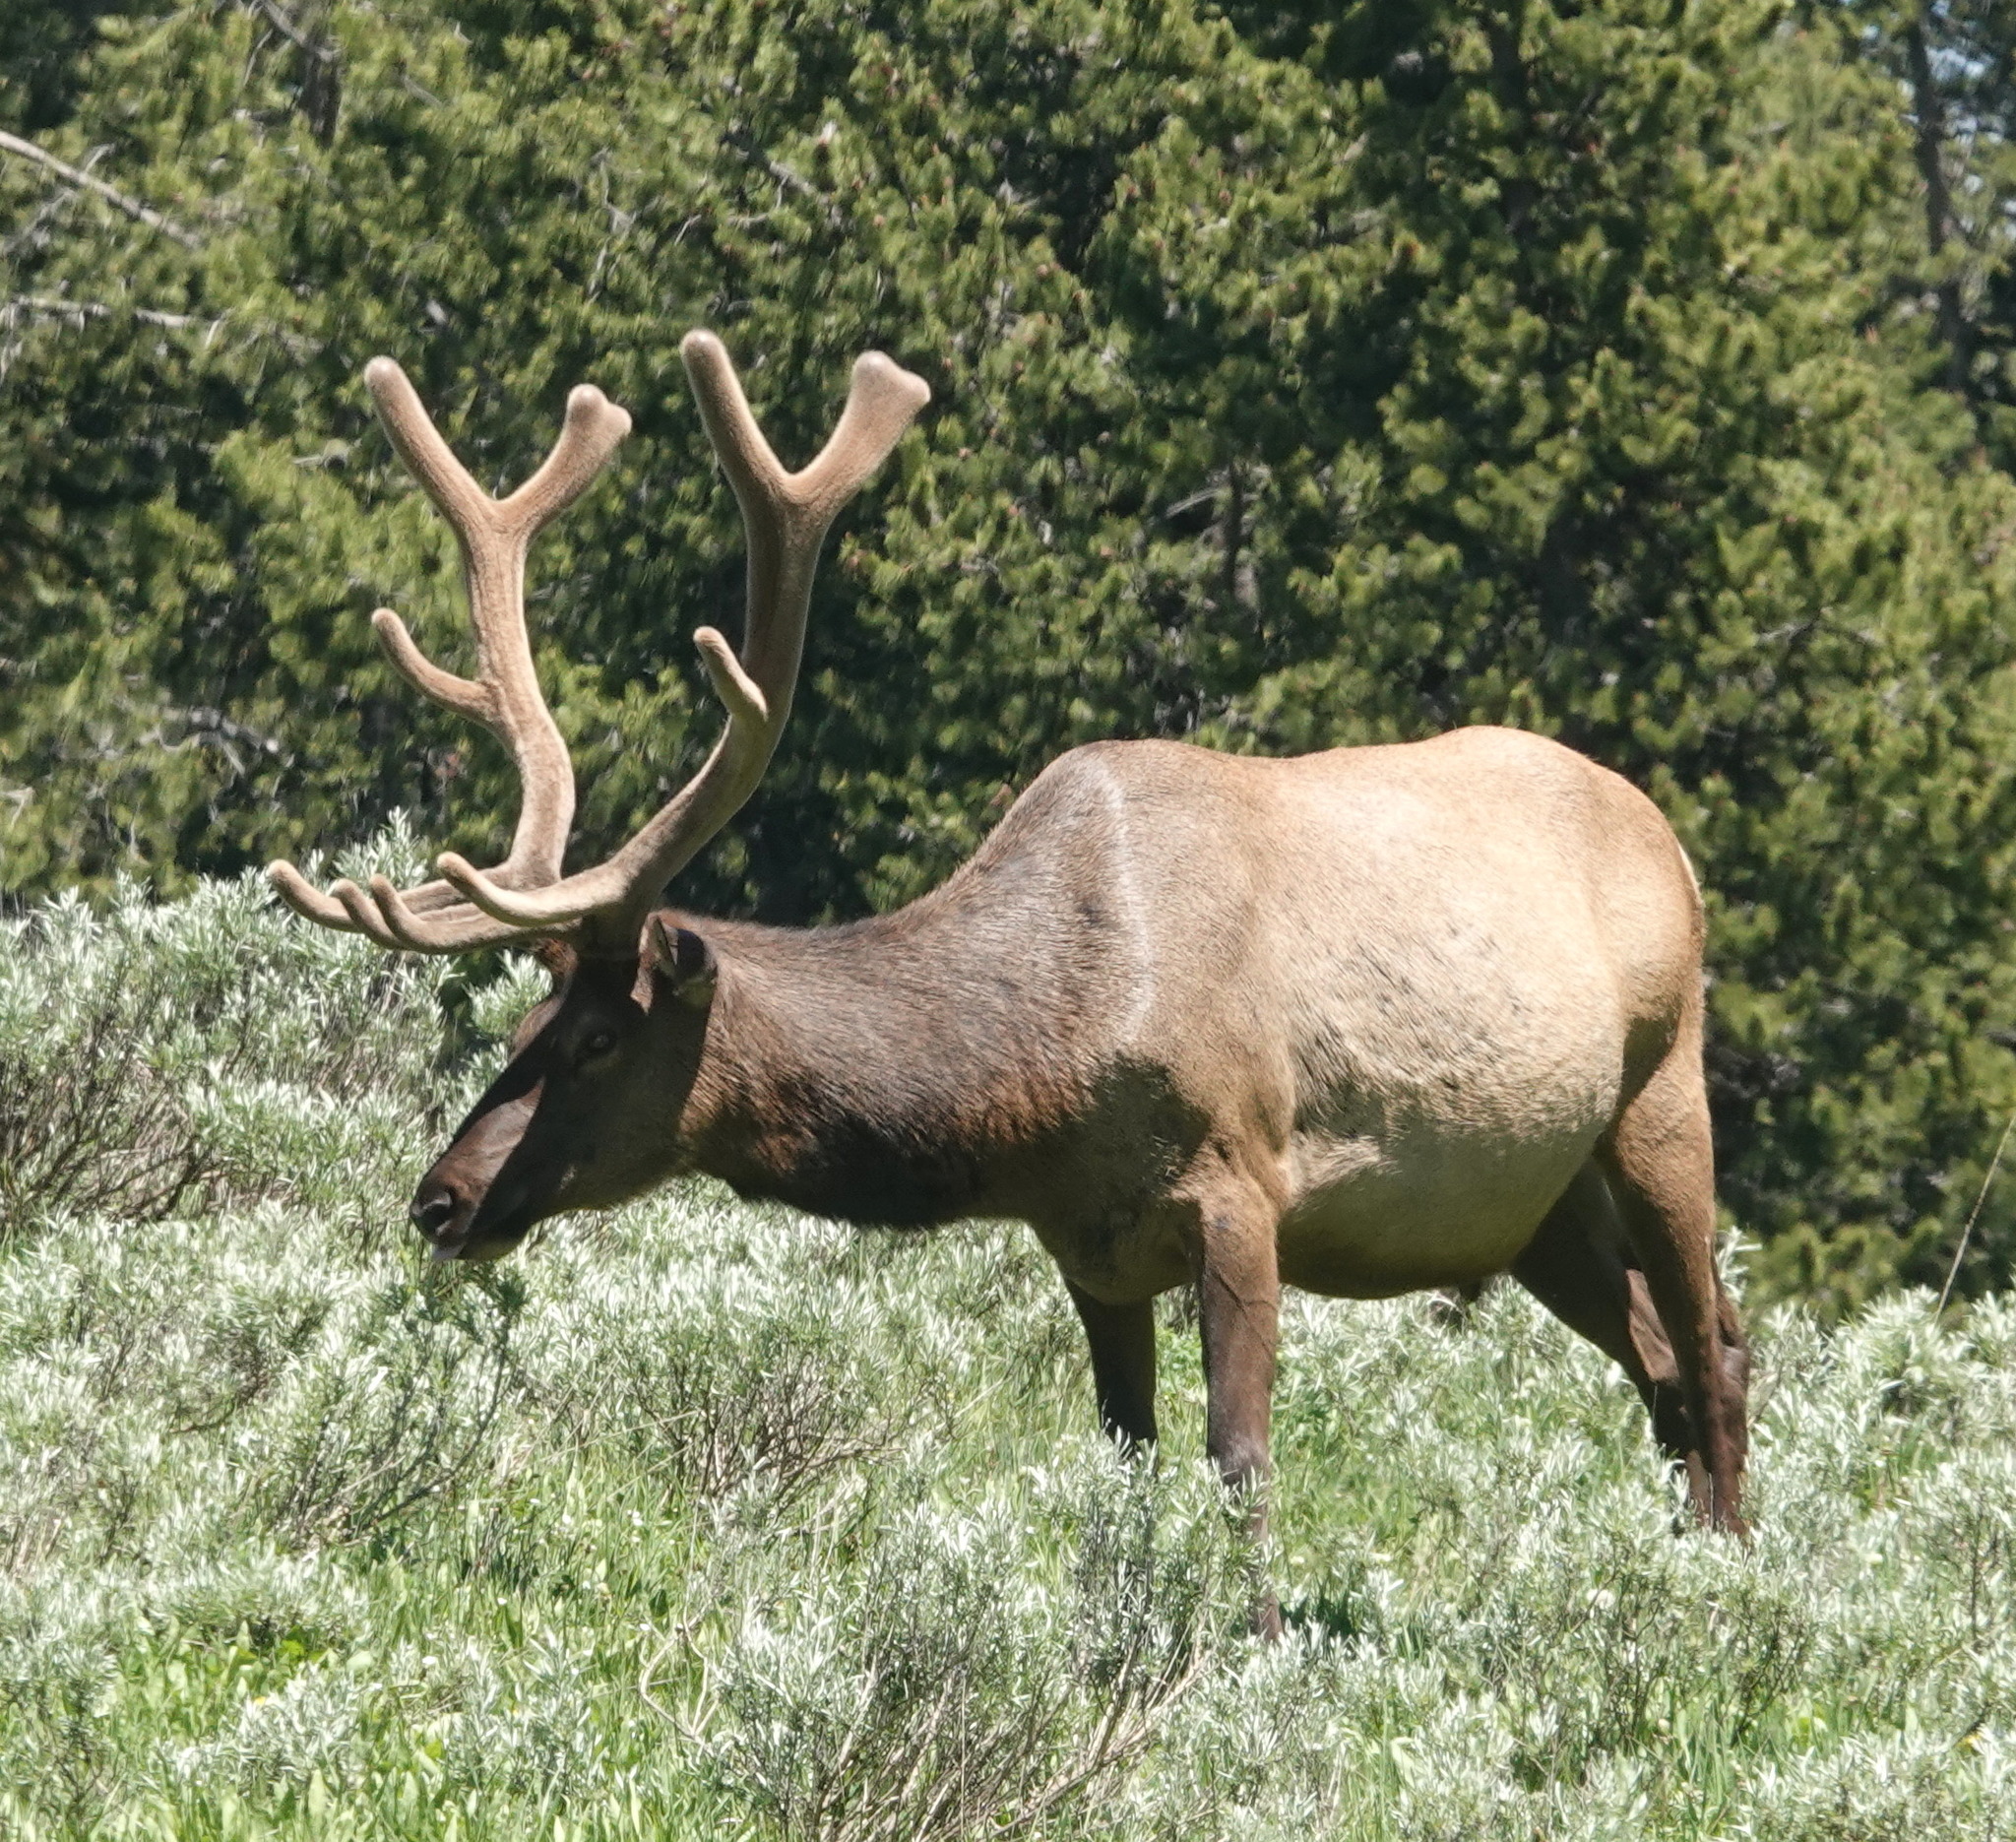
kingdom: Animalia
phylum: Chordata
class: Mammalia
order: Artiodactyla
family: Cervidae
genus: Cervus
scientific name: Cervus elaphus
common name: Red deer
